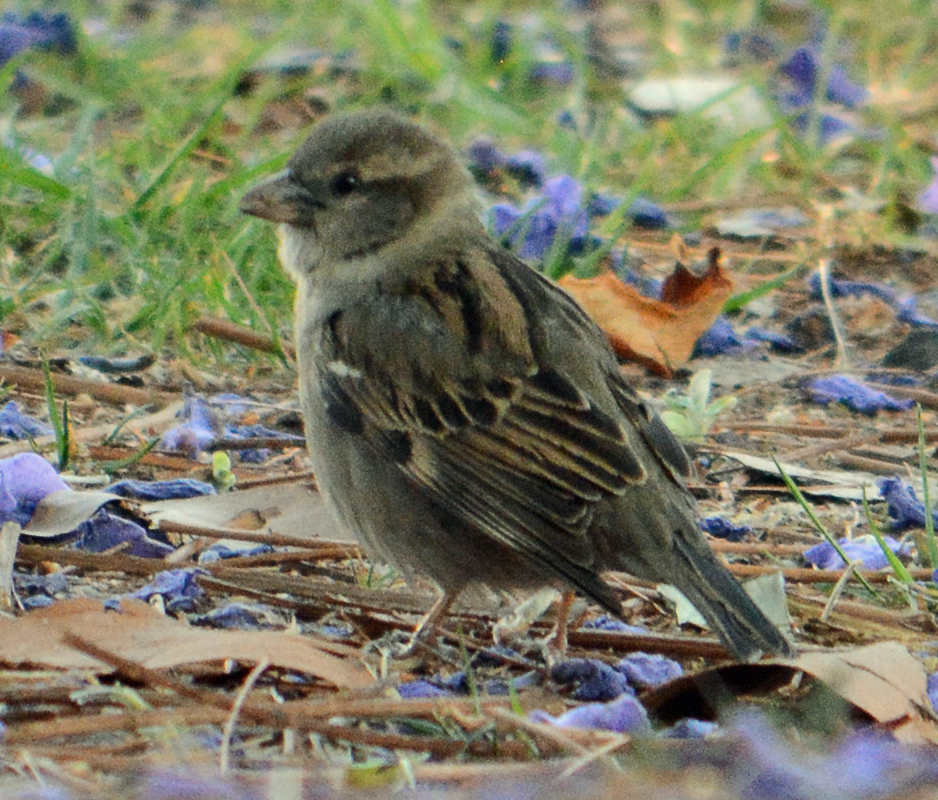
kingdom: Animalia
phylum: Chordata
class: Aves
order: Passeriformes
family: Passeridae
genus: Passer
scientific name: Passer domesticus
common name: House sparrow
